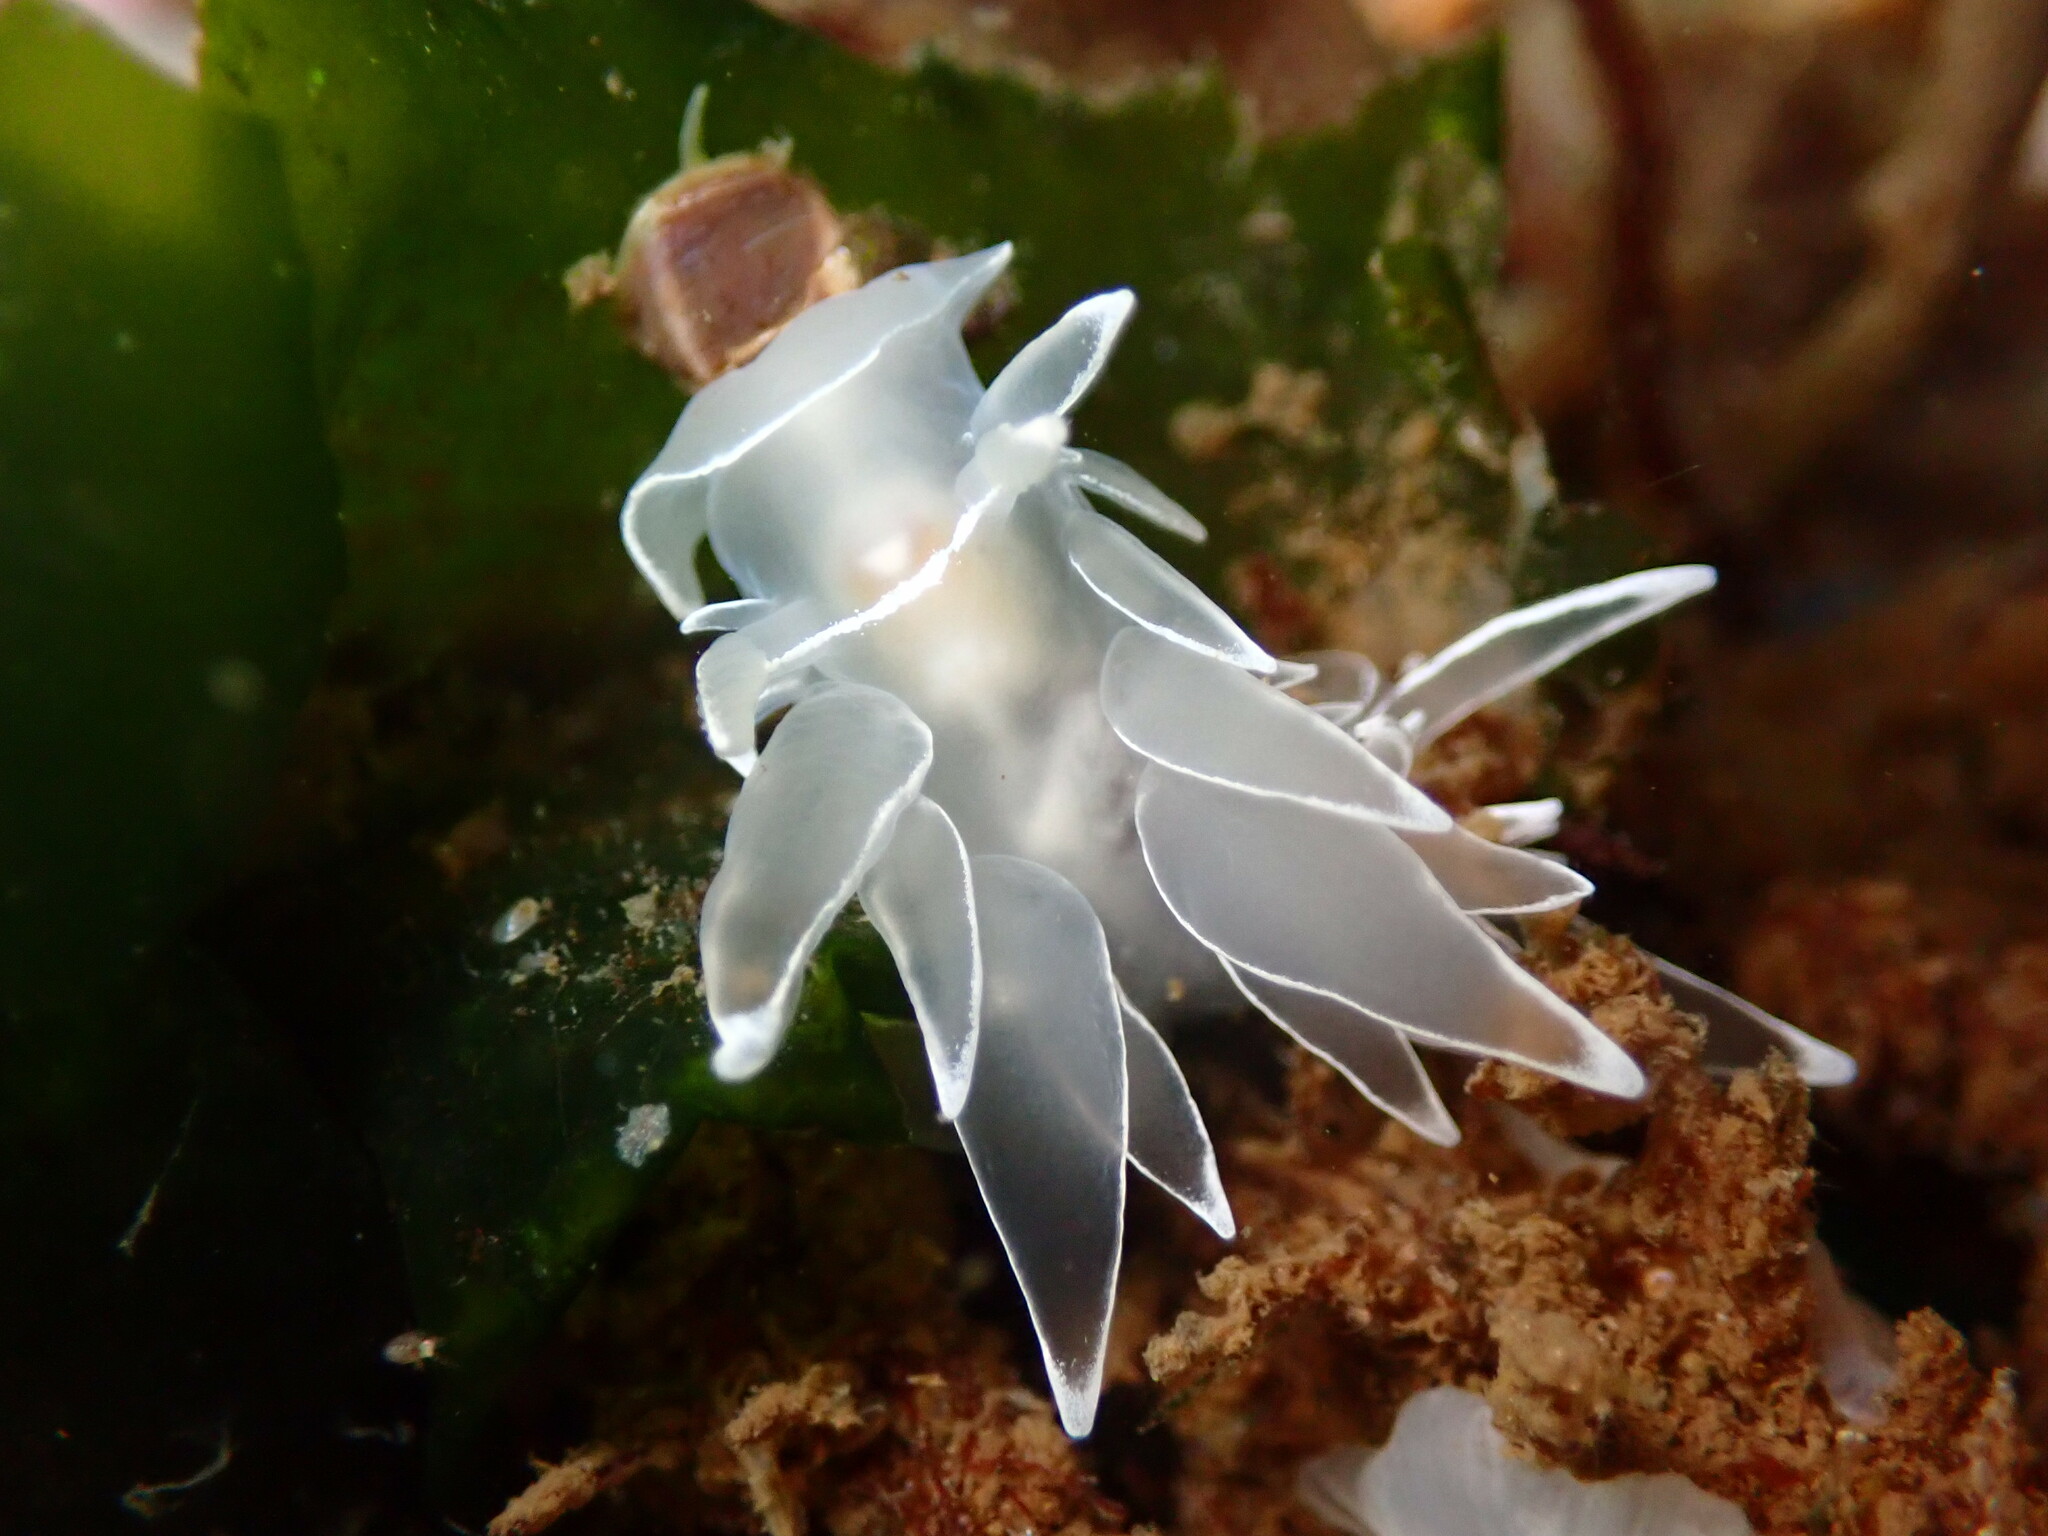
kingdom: Animalia
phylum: Mollusca
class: Gastropoda
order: Nudibranchia
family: Dironidae
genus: Dirona
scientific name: Dirona albolineata
